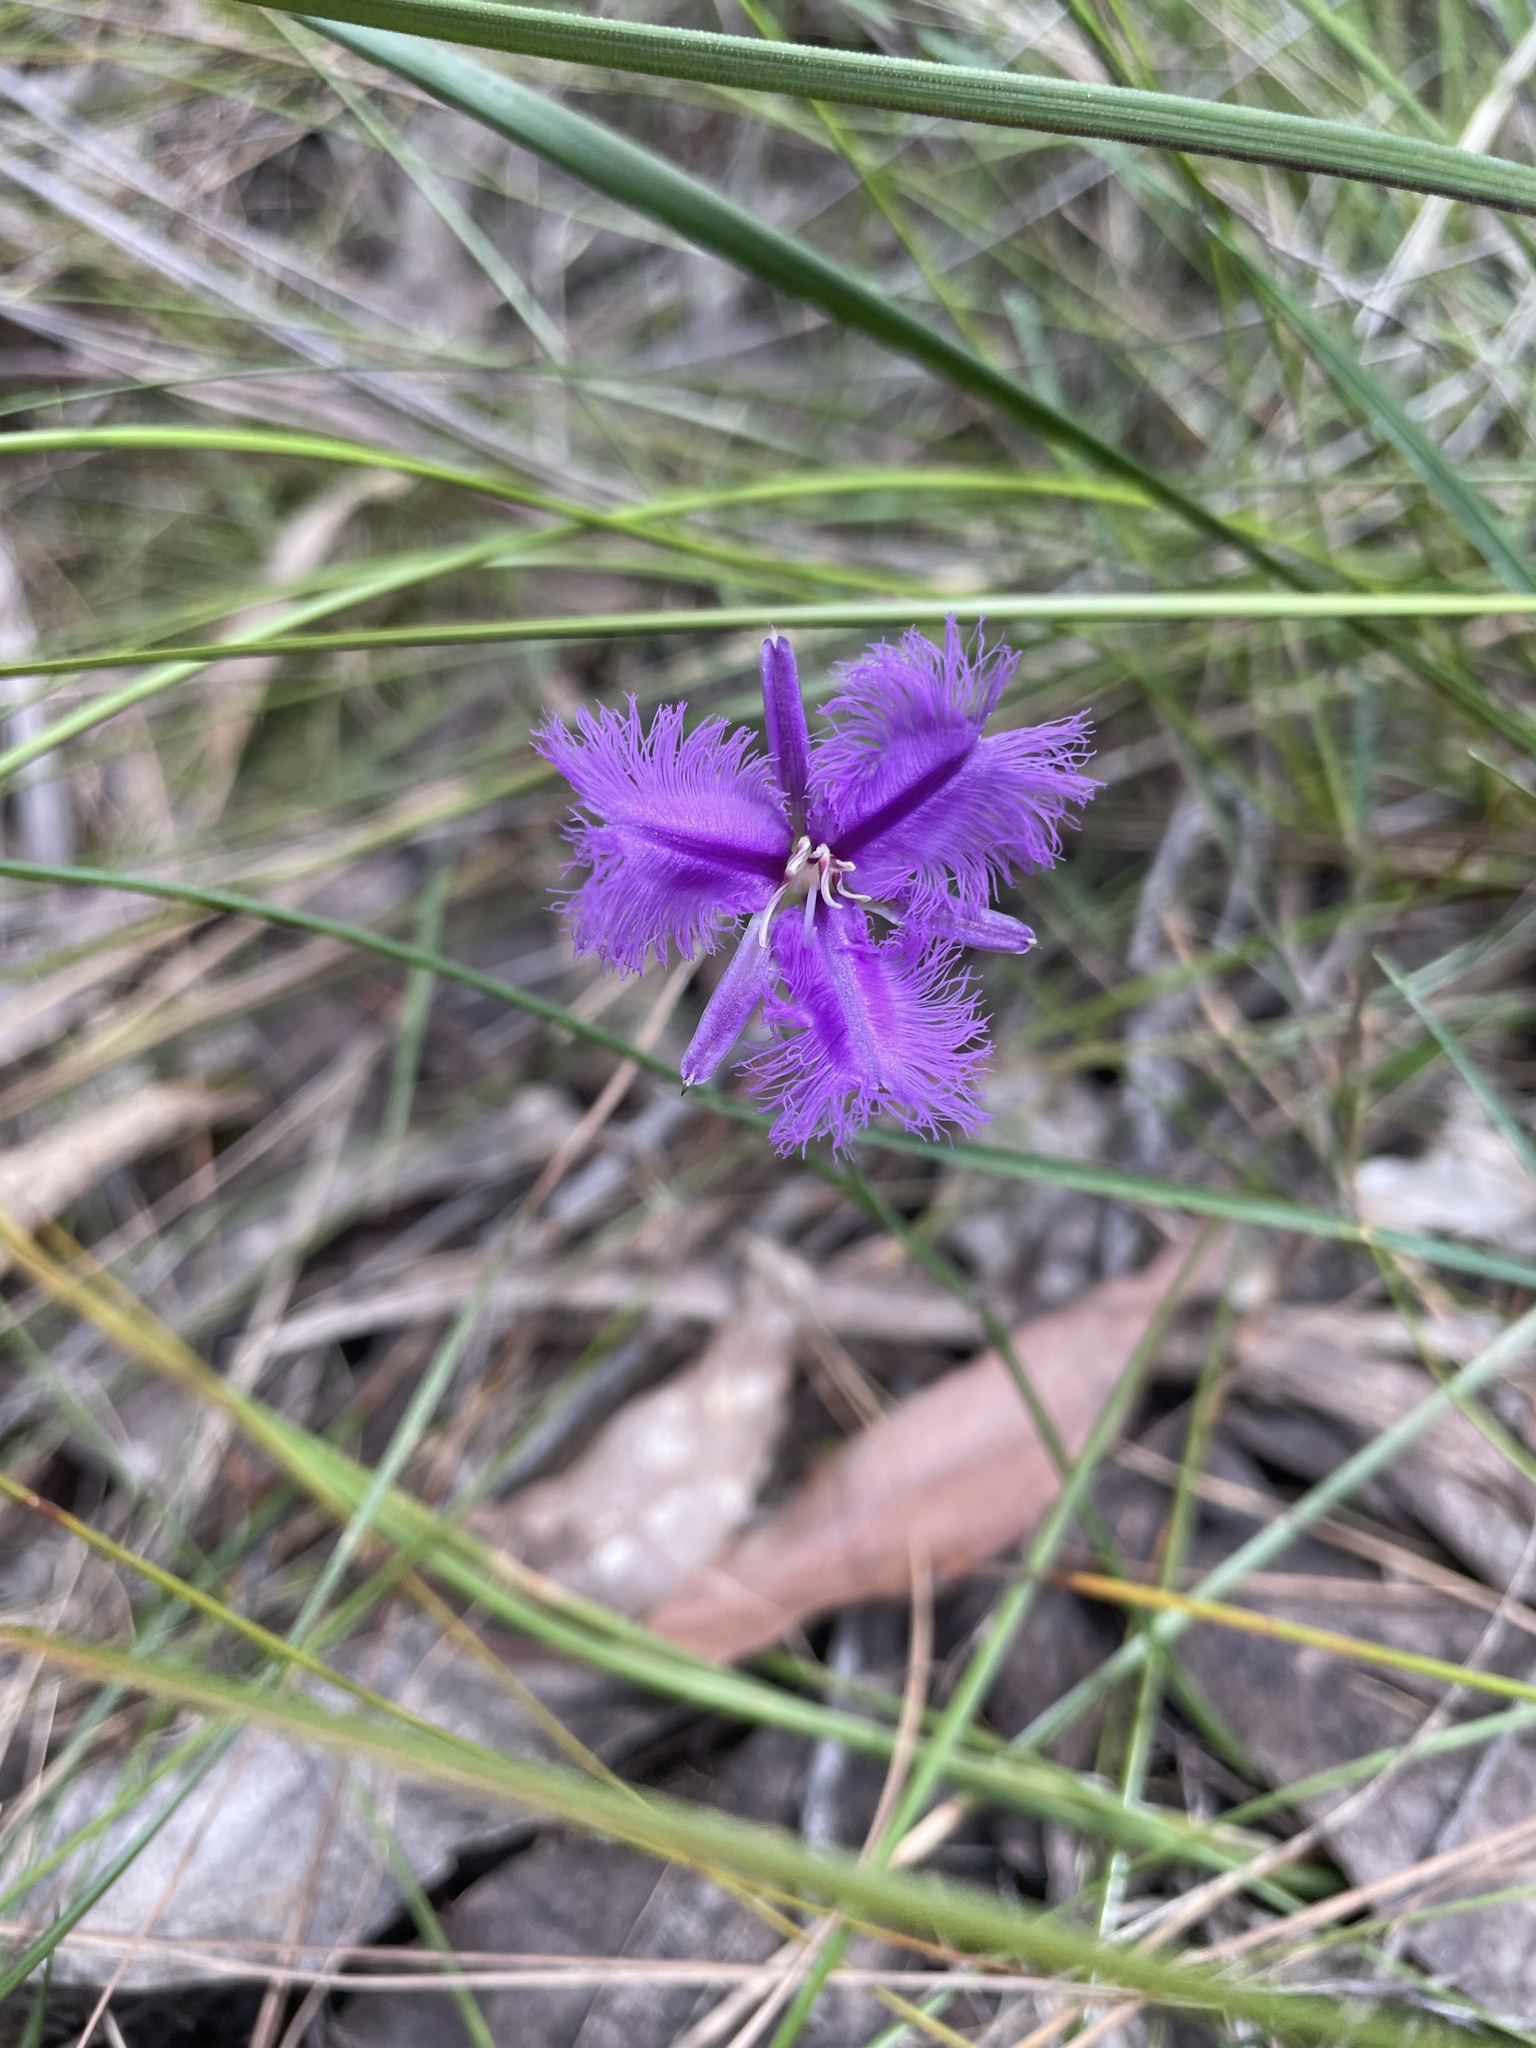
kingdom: Plantae
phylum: Tracheophyta
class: Liliopsida
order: Asparagales
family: Asparagaceae
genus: Thysanotus
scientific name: Thysanotus tuberosus
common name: Common fringed-lily
